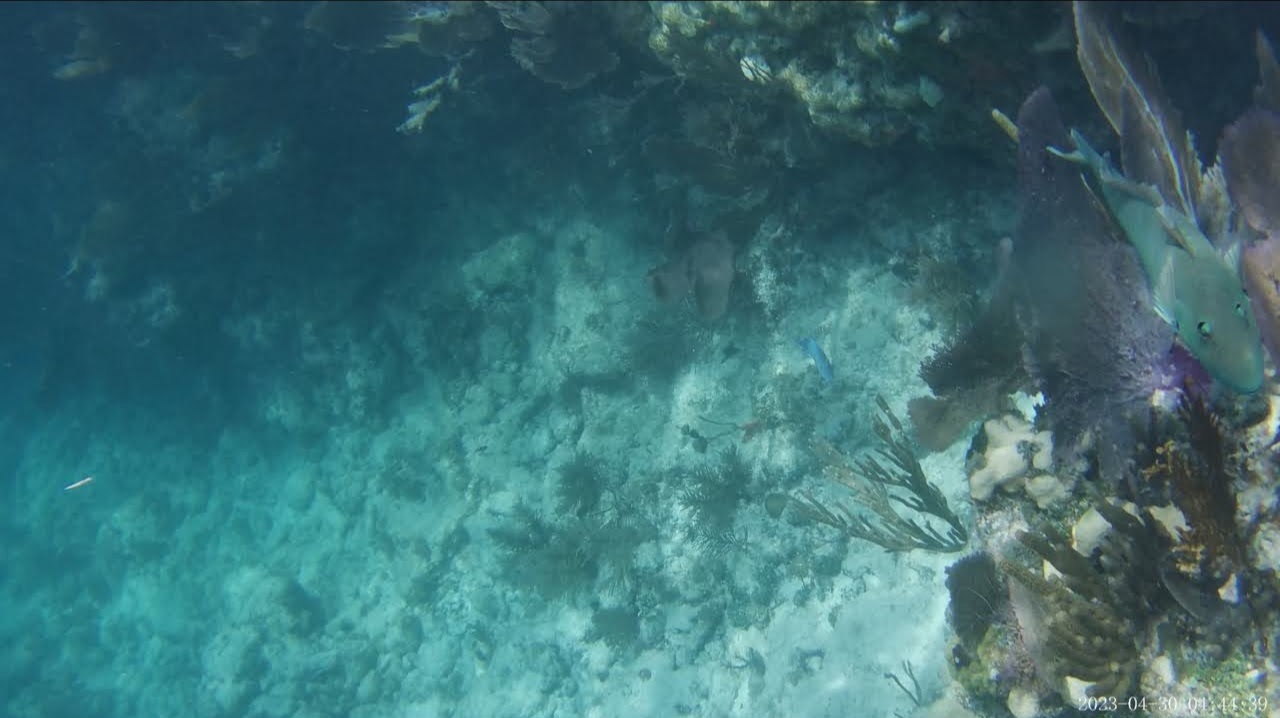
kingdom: Animalia
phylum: Cnidaria
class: Anthozoa
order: Malacalcyonacea
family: Gorgoniidae
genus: Gorgonia
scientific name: Gorgonia ventalina
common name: Common sea fan
